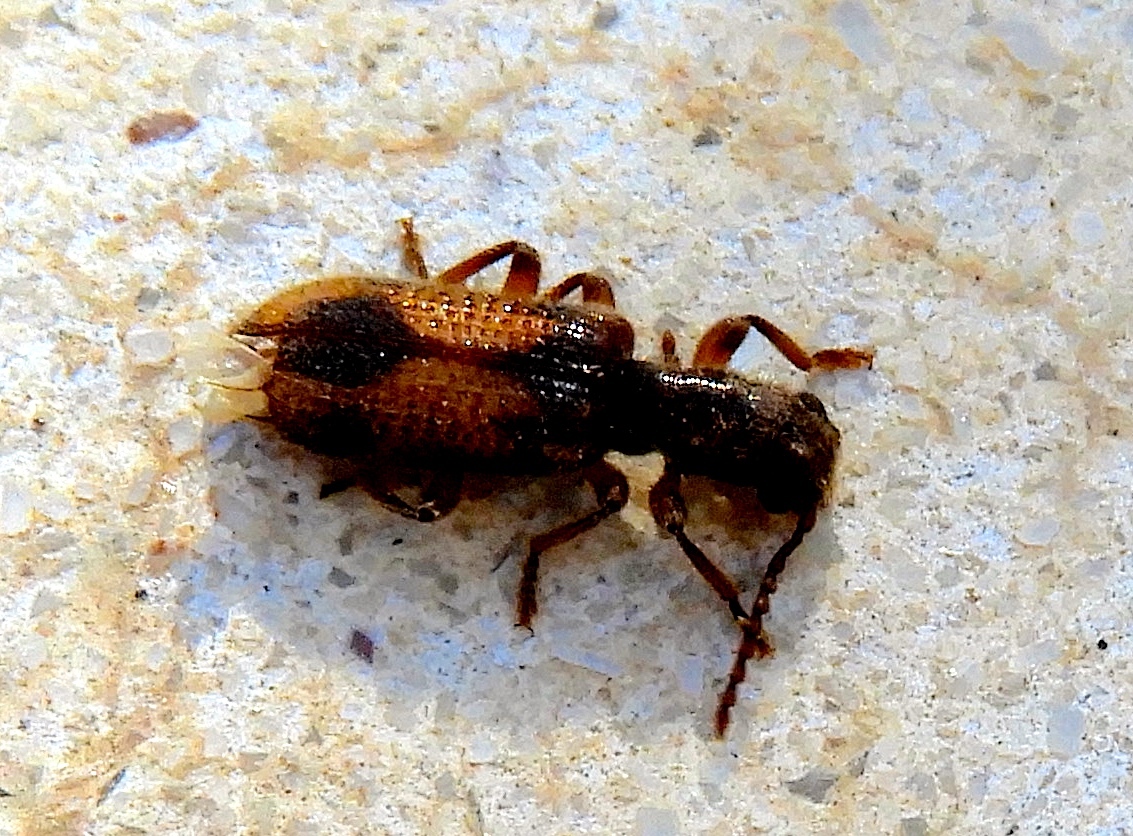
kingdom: Animalia
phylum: Arthropoda
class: Insecta
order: Coleoptera
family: Cleridae
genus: Cymatodera
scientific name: Cymatodera
